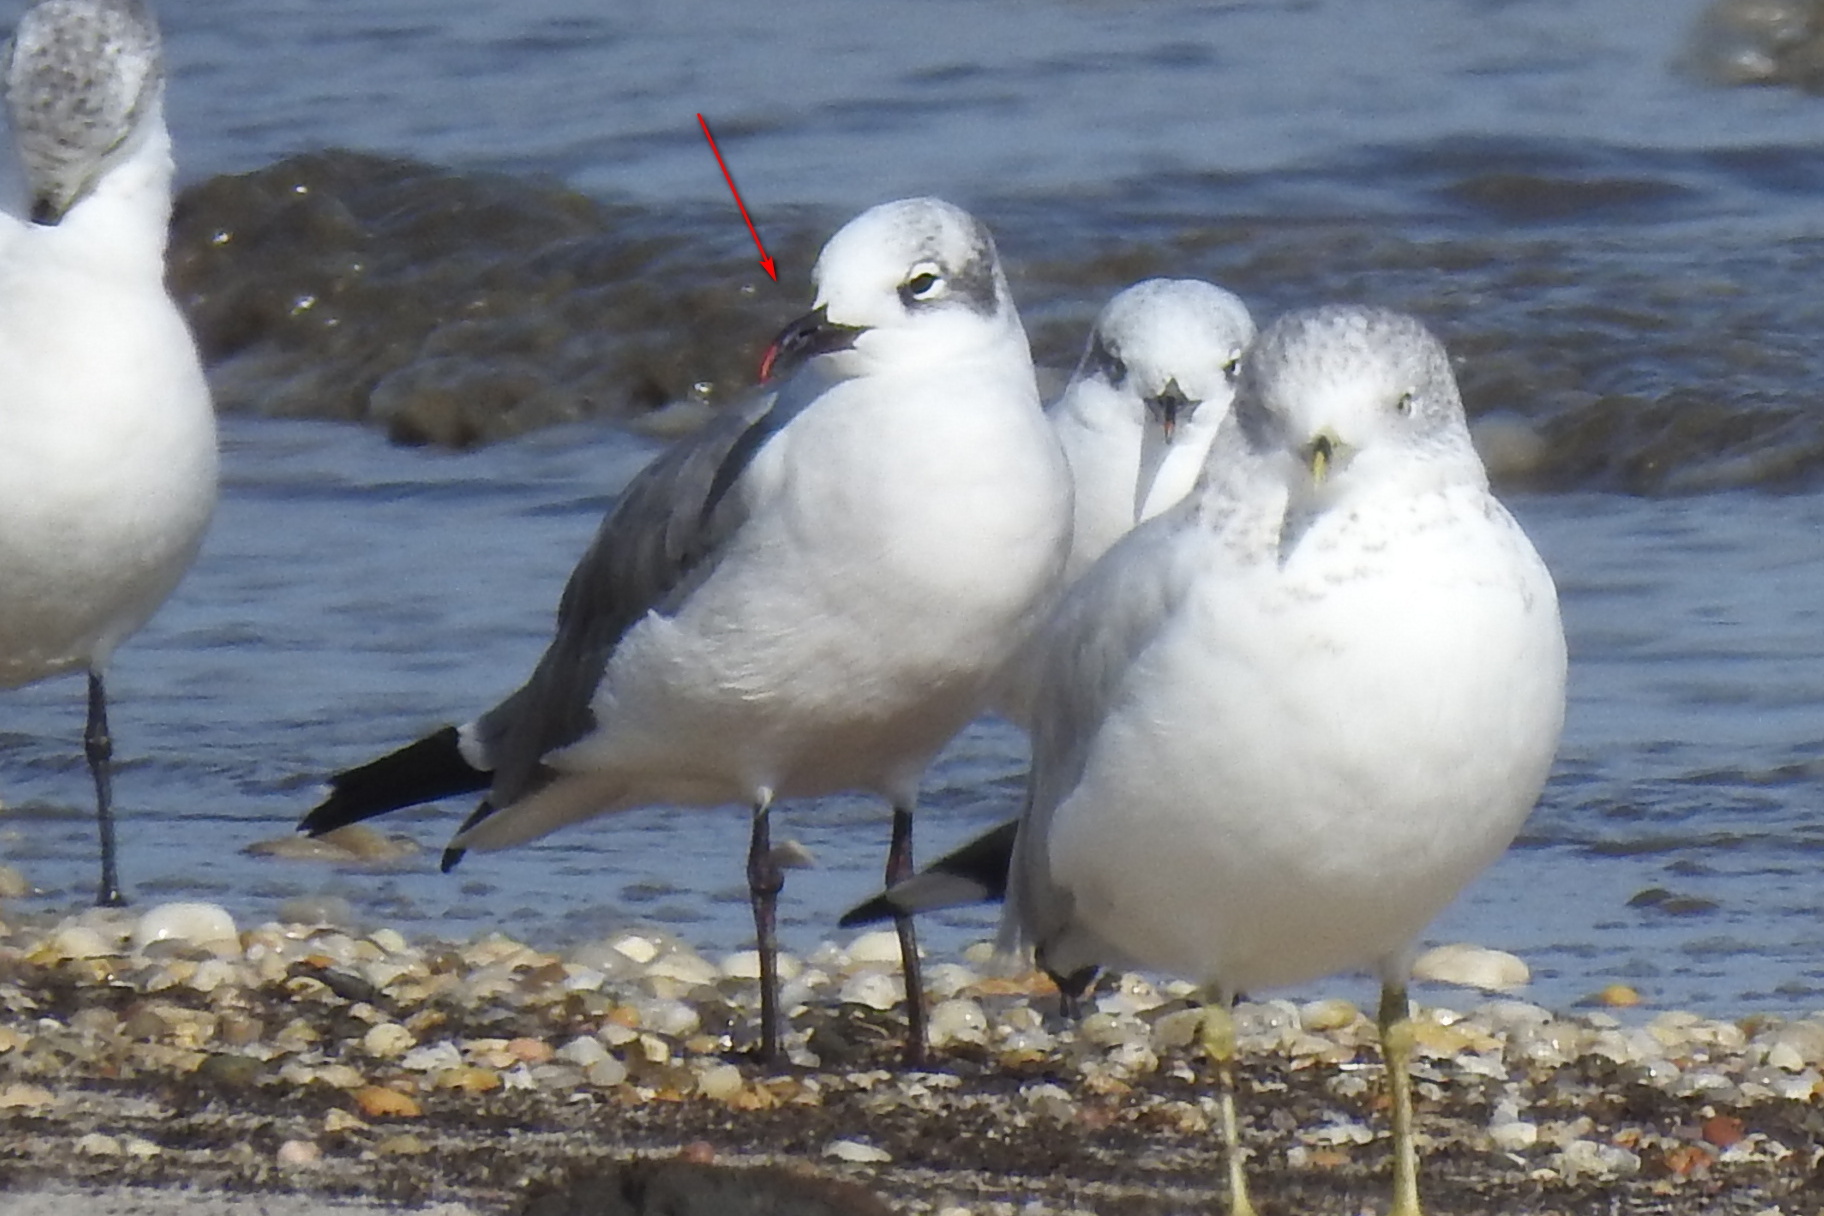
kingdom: Animalia
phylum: Chordata
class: Aves
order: Charadriiformes
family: Laridae
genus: Leucophaeus
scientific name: Leucophaeus atricilla
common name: Laughing gull
